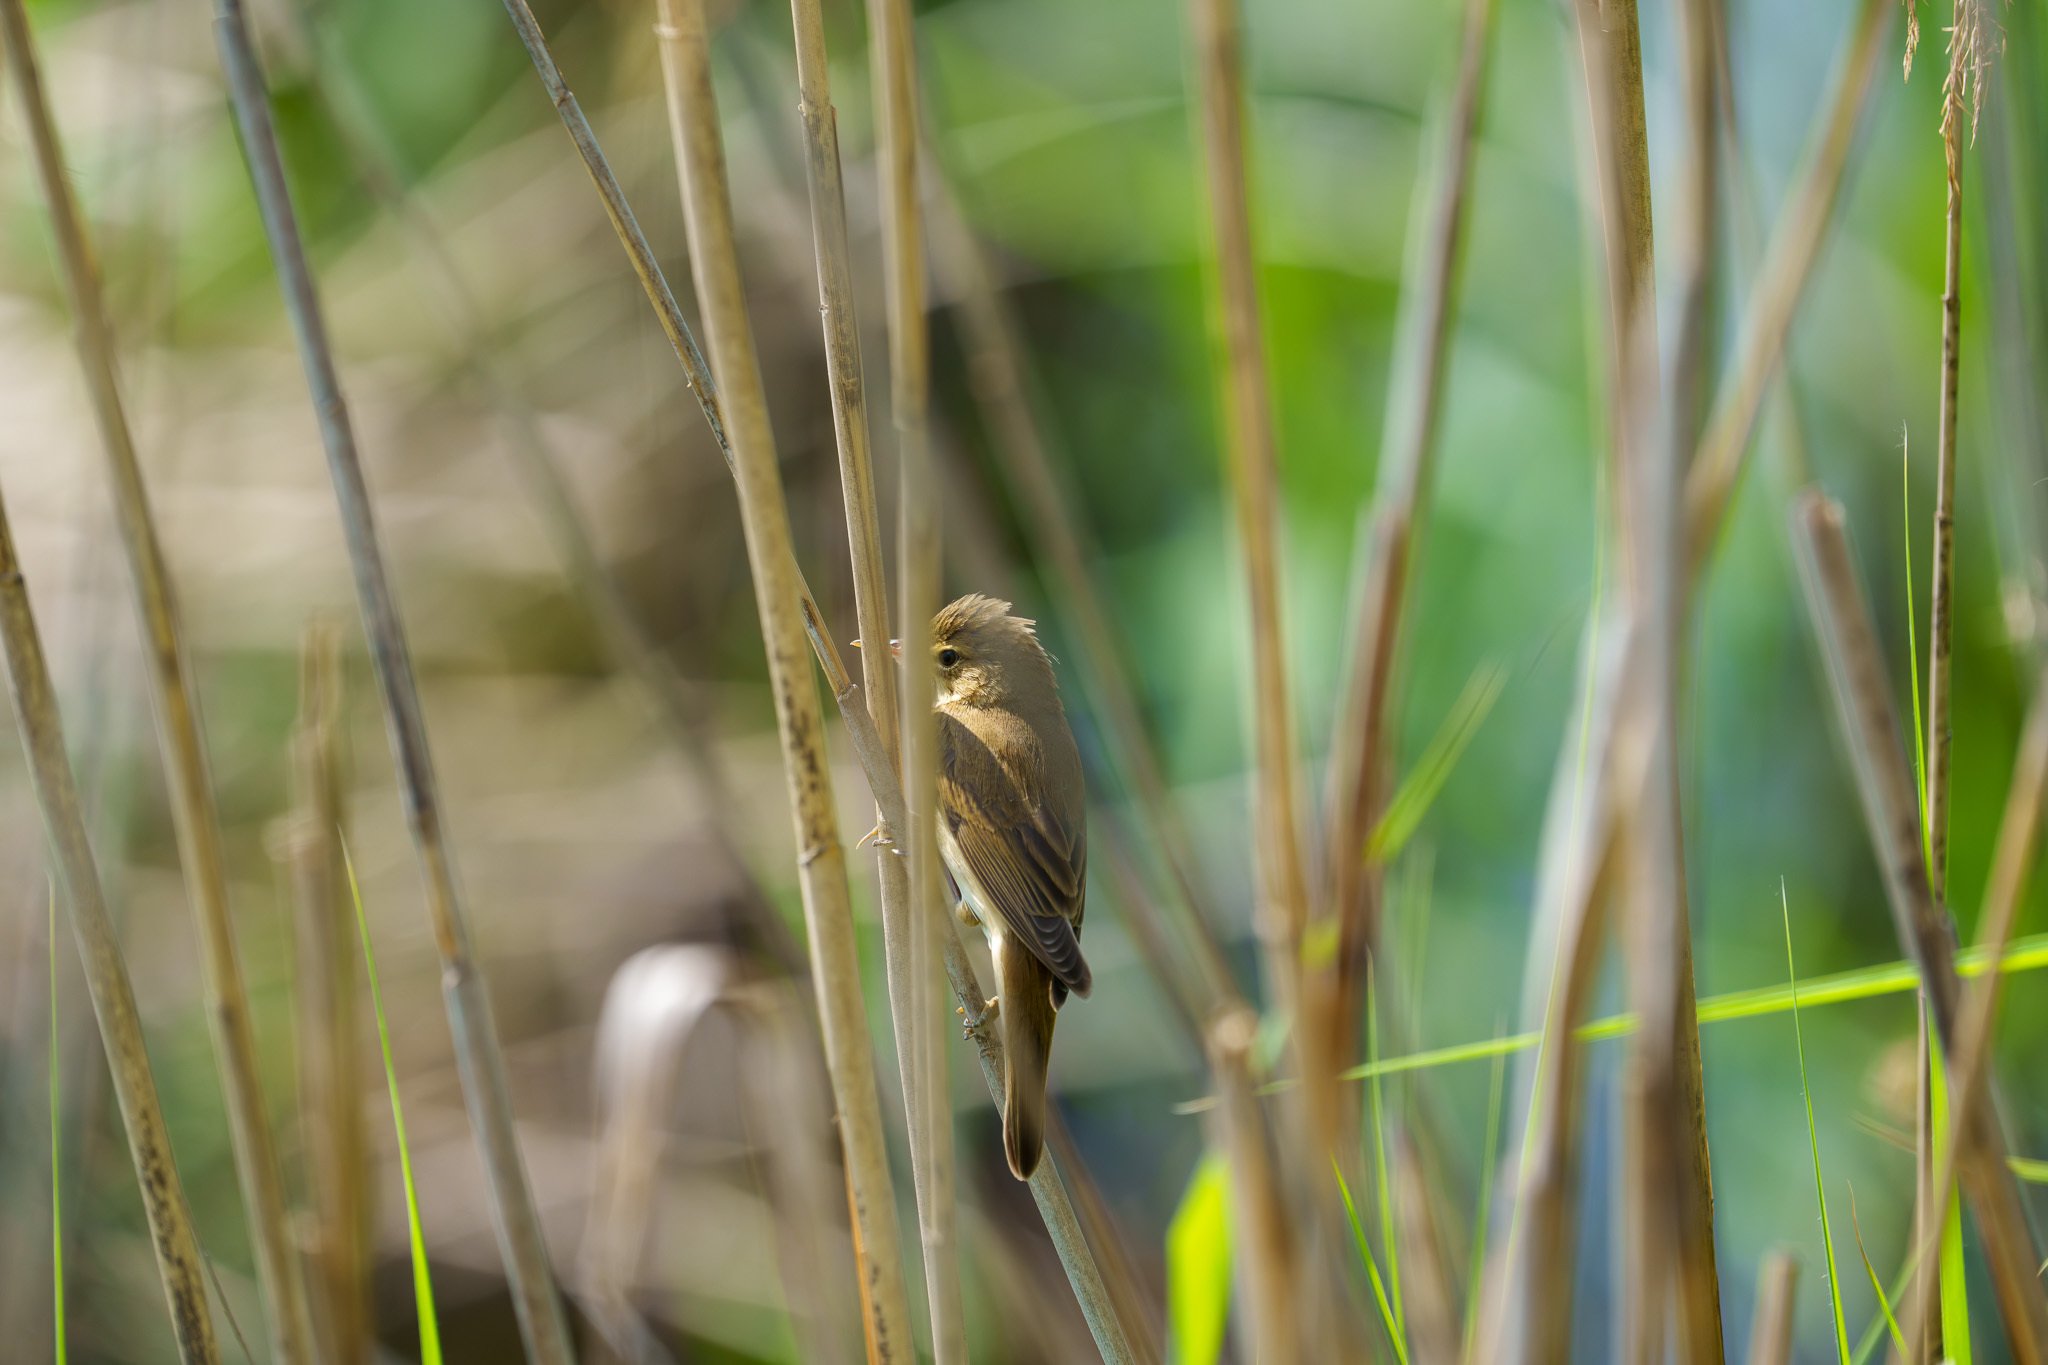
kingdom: Animalia
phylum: Chordata
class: Aves
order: Passeriformes
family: Acrocephalidae
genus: Acrocephalus
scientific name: Acrocephalus palustris
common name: Marsh warbler
